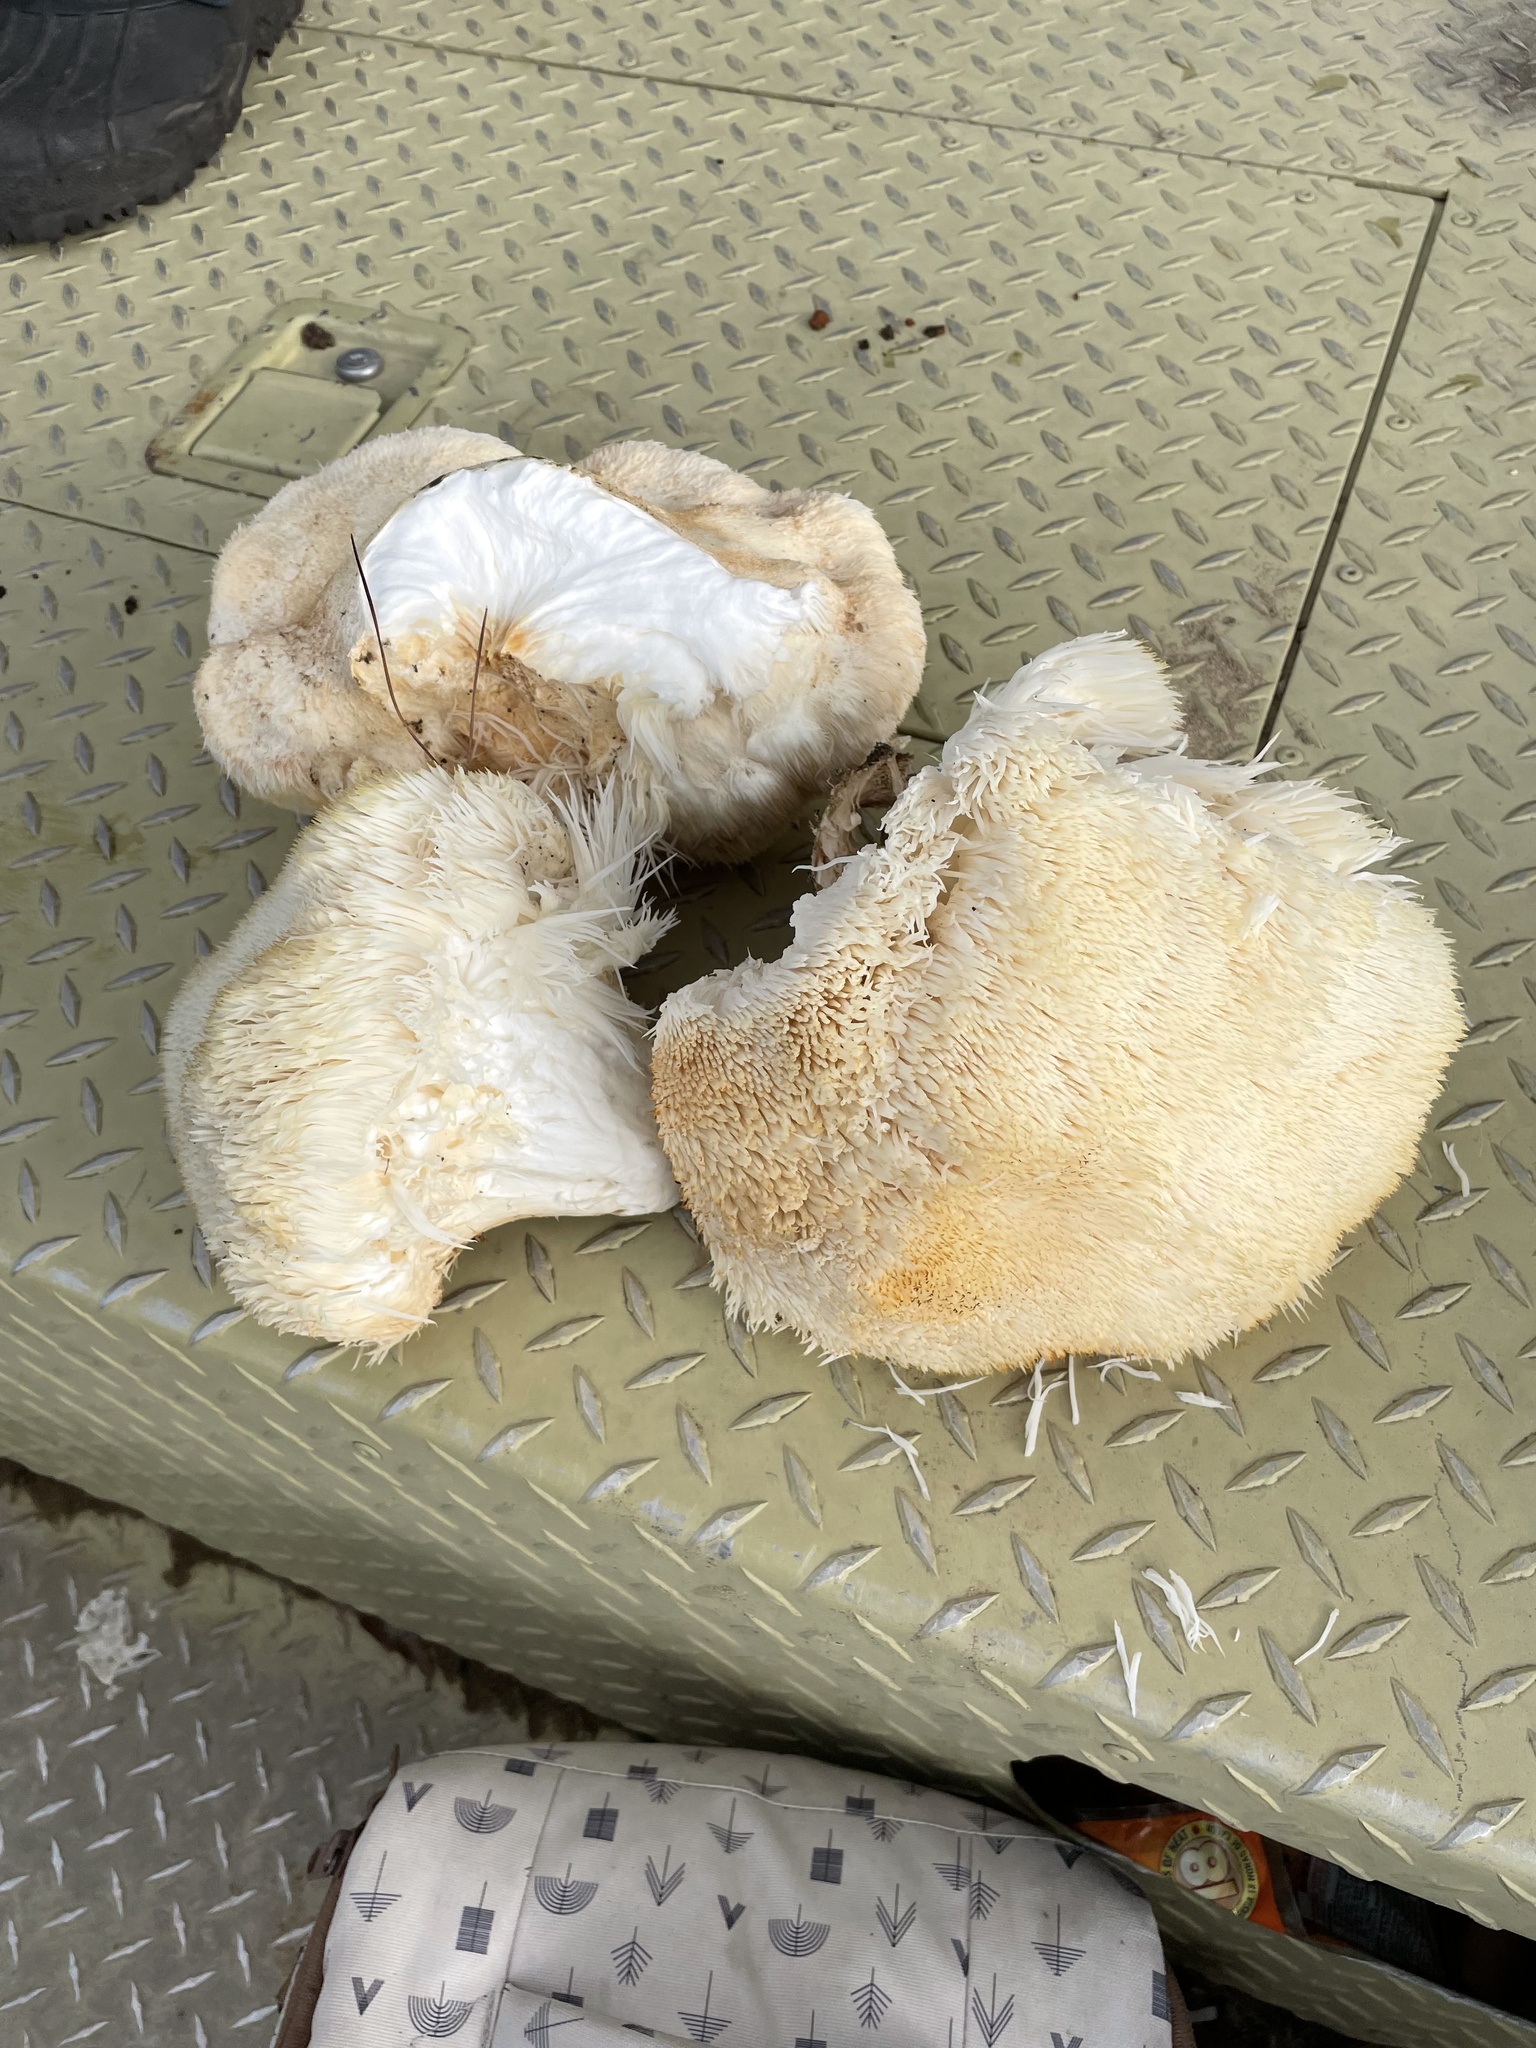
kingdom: Fungi
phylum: Basidiomycota
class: Agaricomycetes
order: Russulales
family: Hericiaceae
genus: Hericium
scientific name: Hericium erinaceus
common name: Bearded tooth
